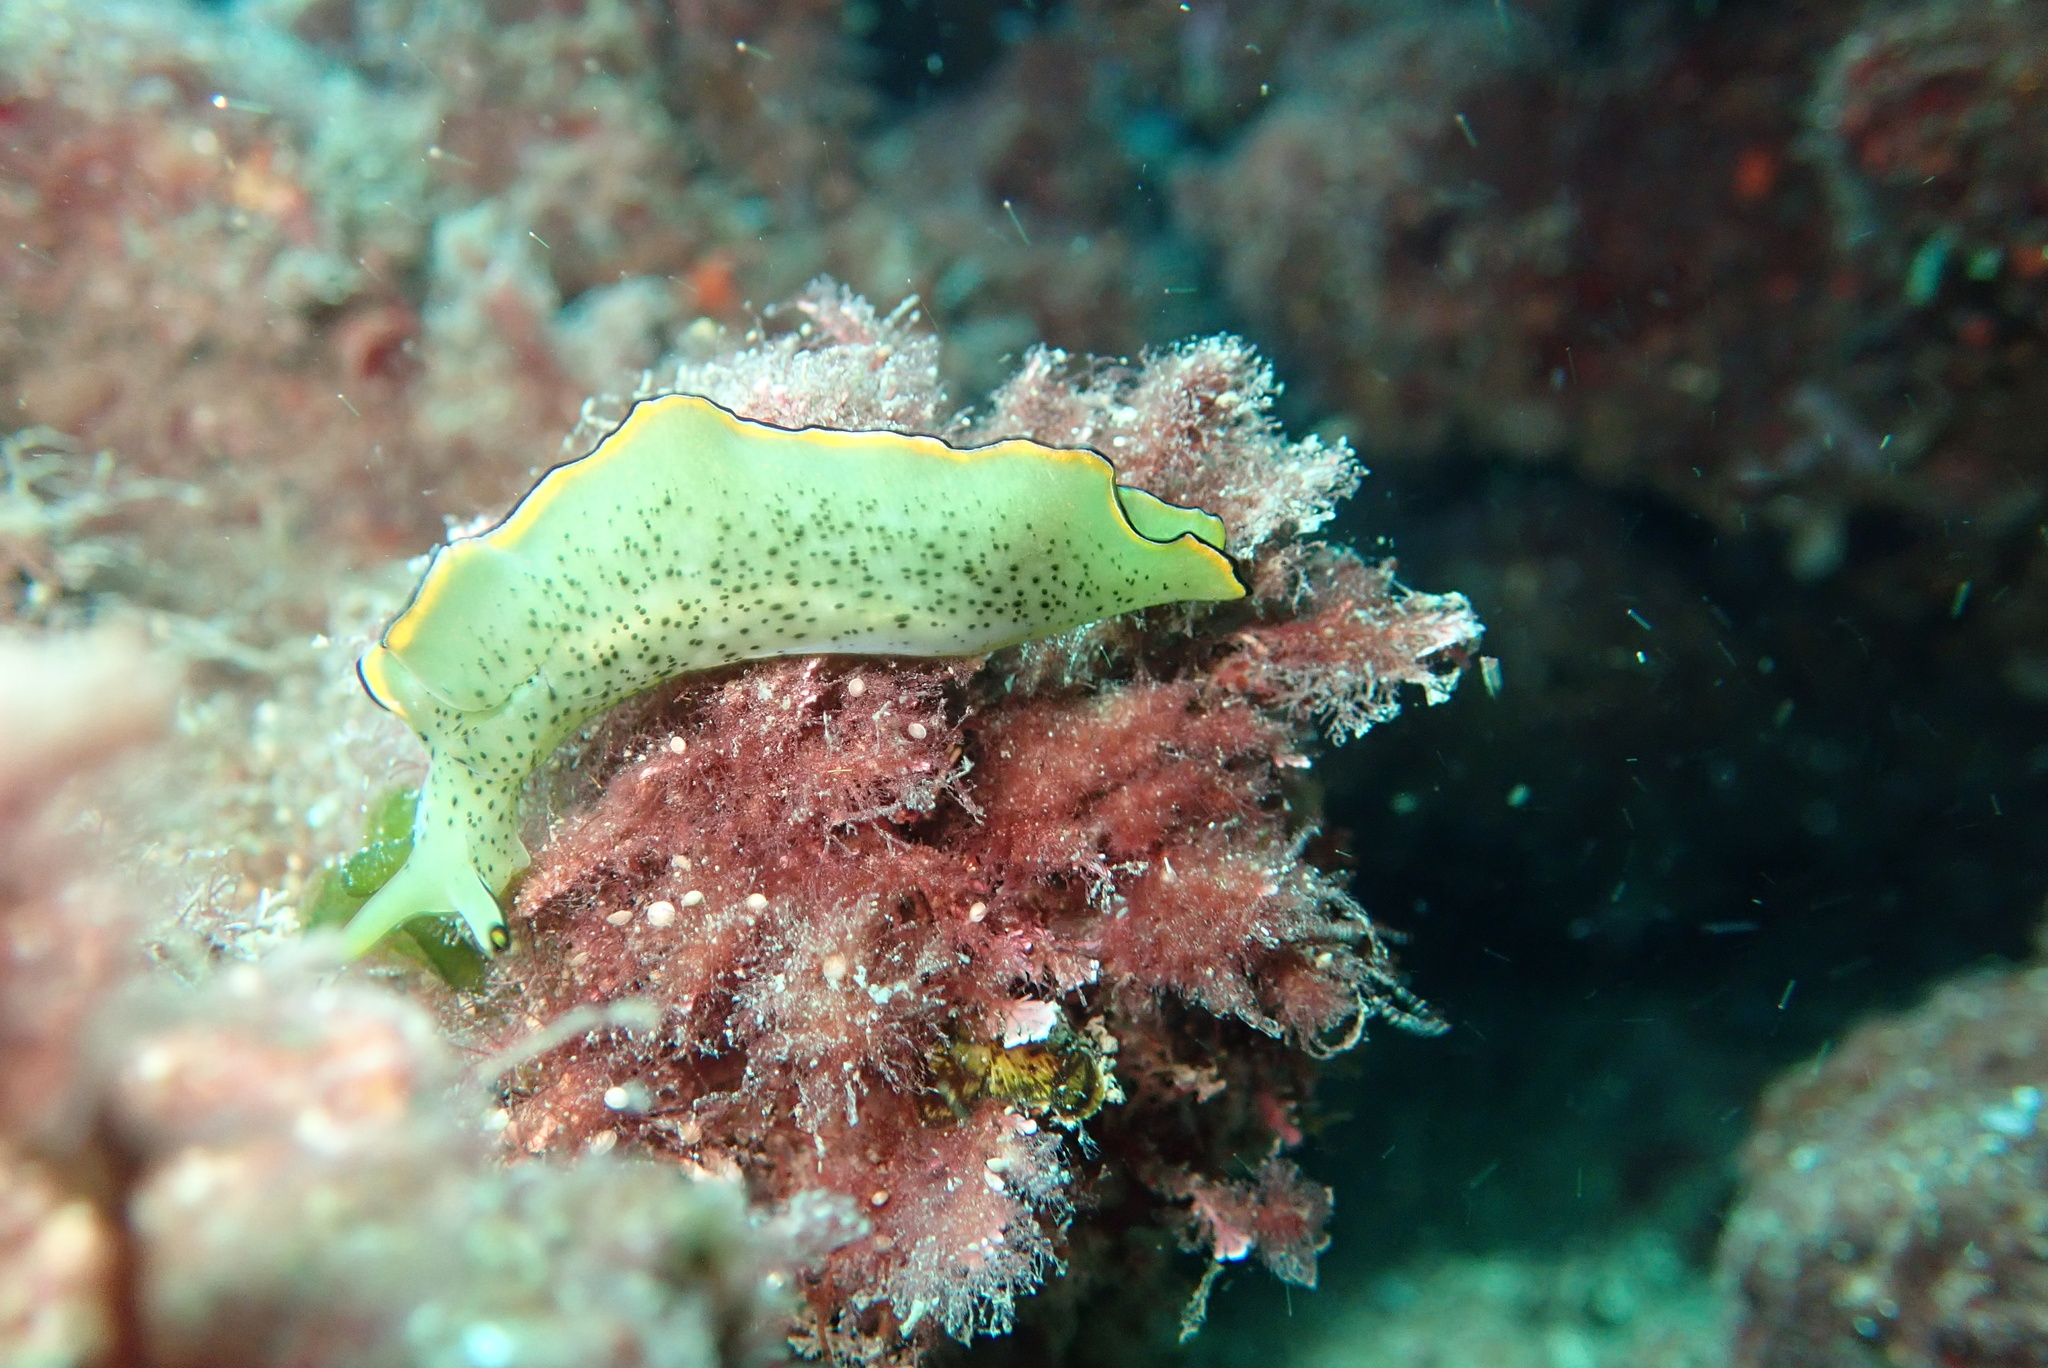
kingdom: Animalia
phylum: Mollusca
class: Gastropoda
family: Plakobranchidae
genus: Elysia
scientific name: Elysia ornata
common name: Ornate elysia
